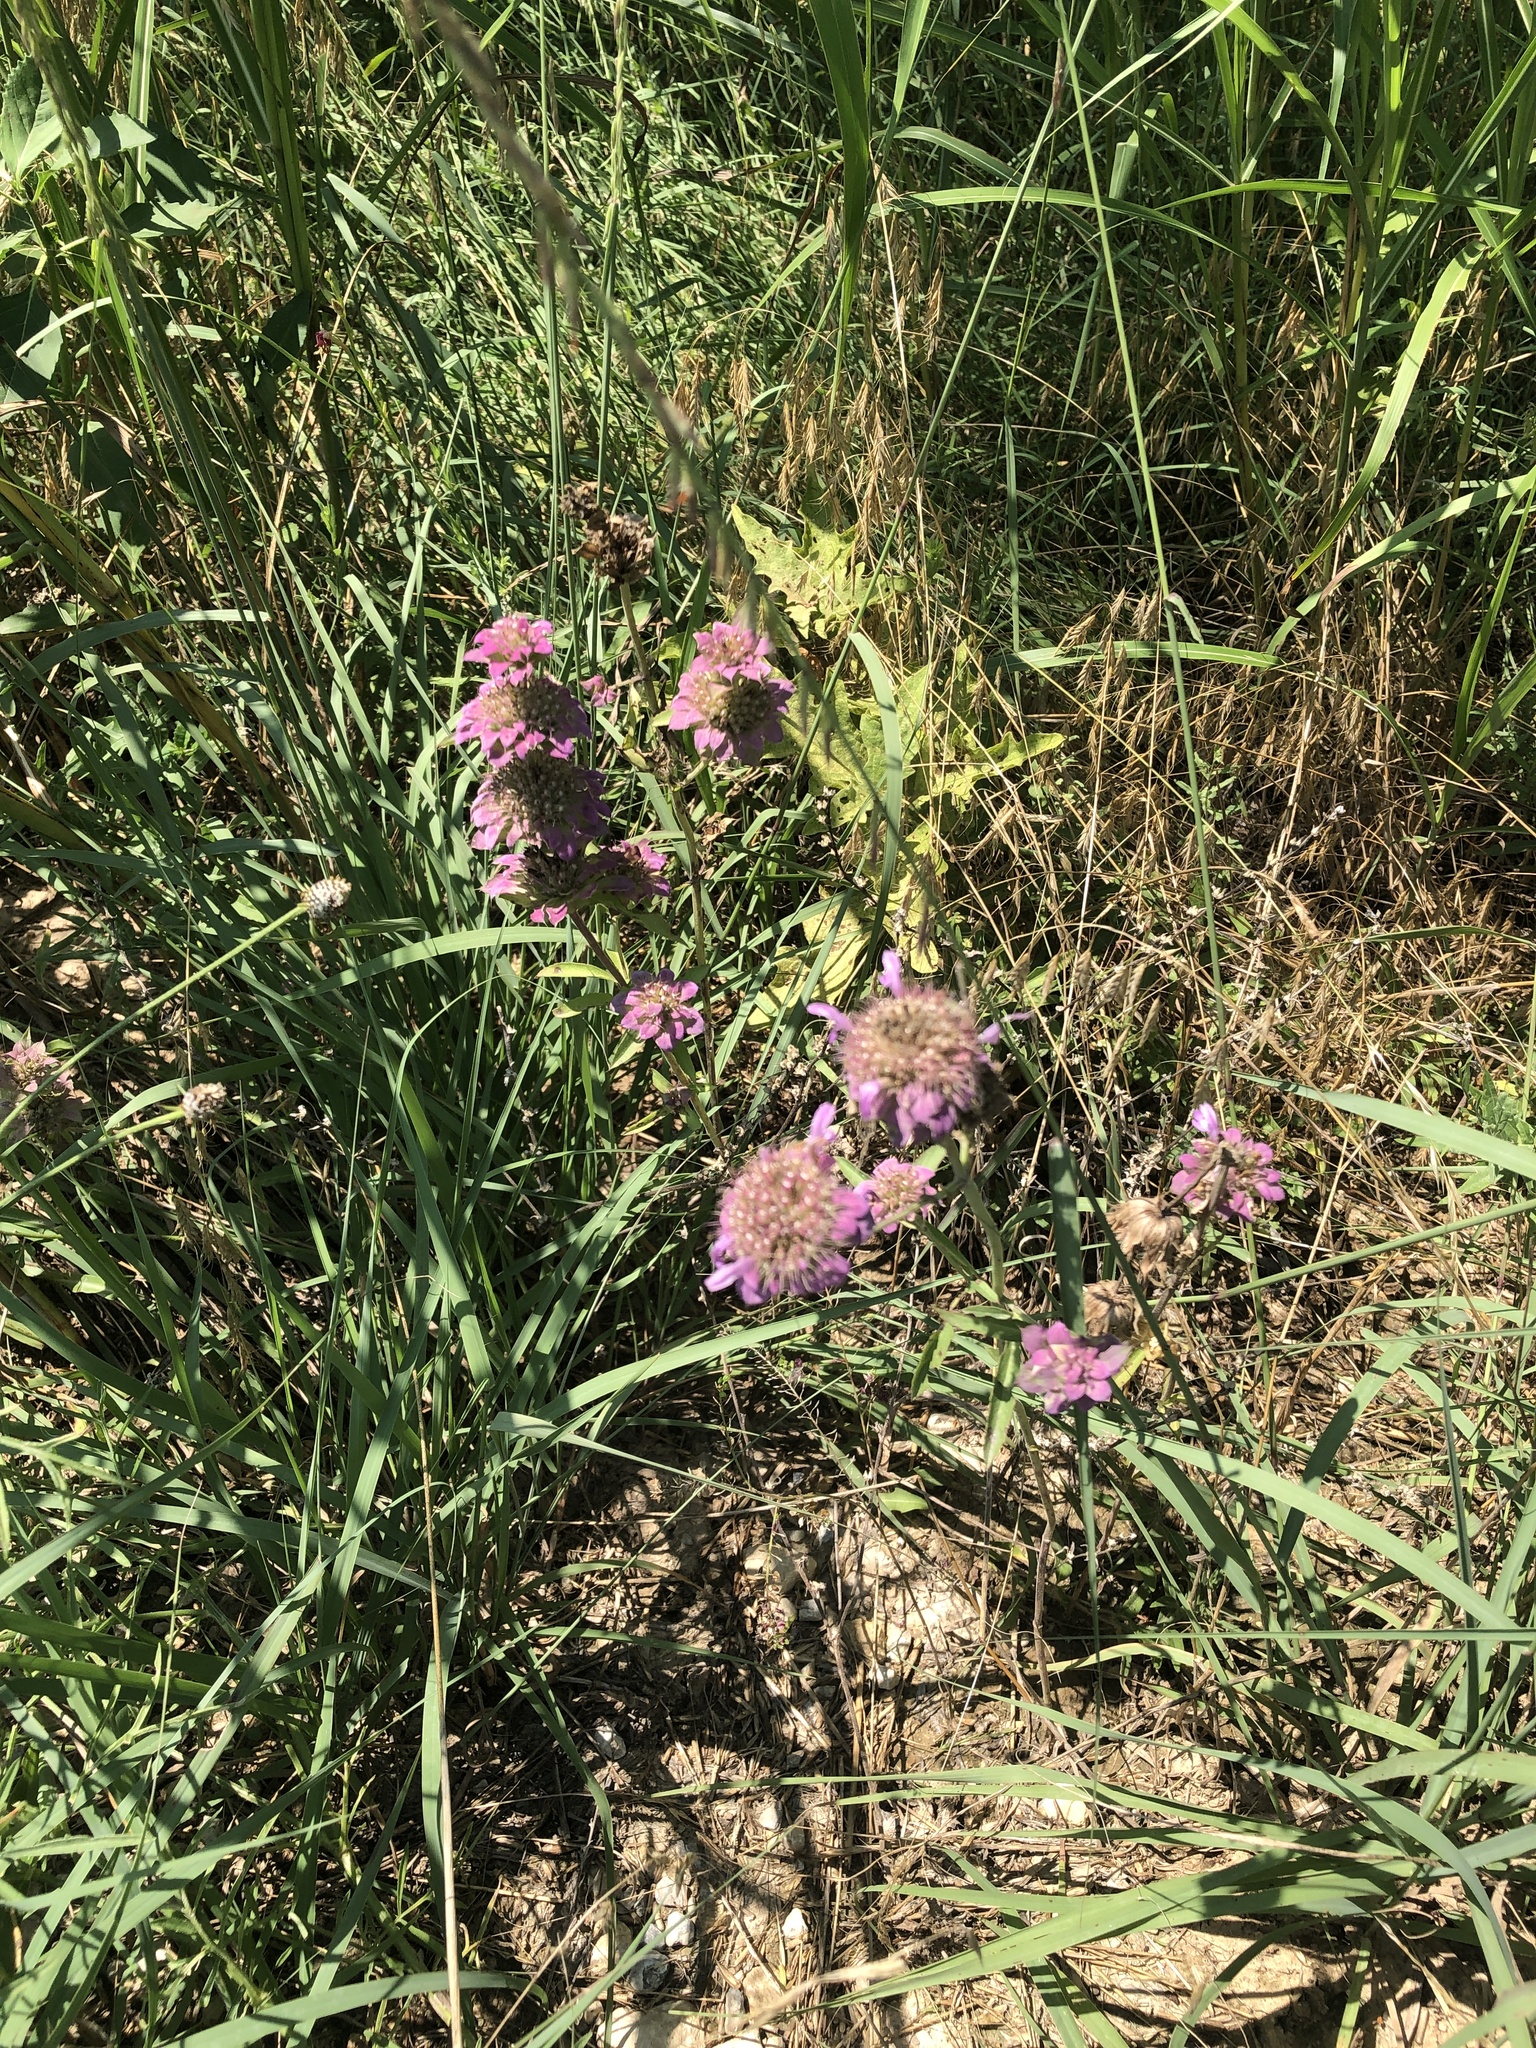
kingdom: Plantae
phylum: Tracheophyta
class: Magnoliopsida
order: Lamiales
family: Lamiaceae
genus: Monarda
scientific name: Monarda citriodora
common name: Lemon beebalm
